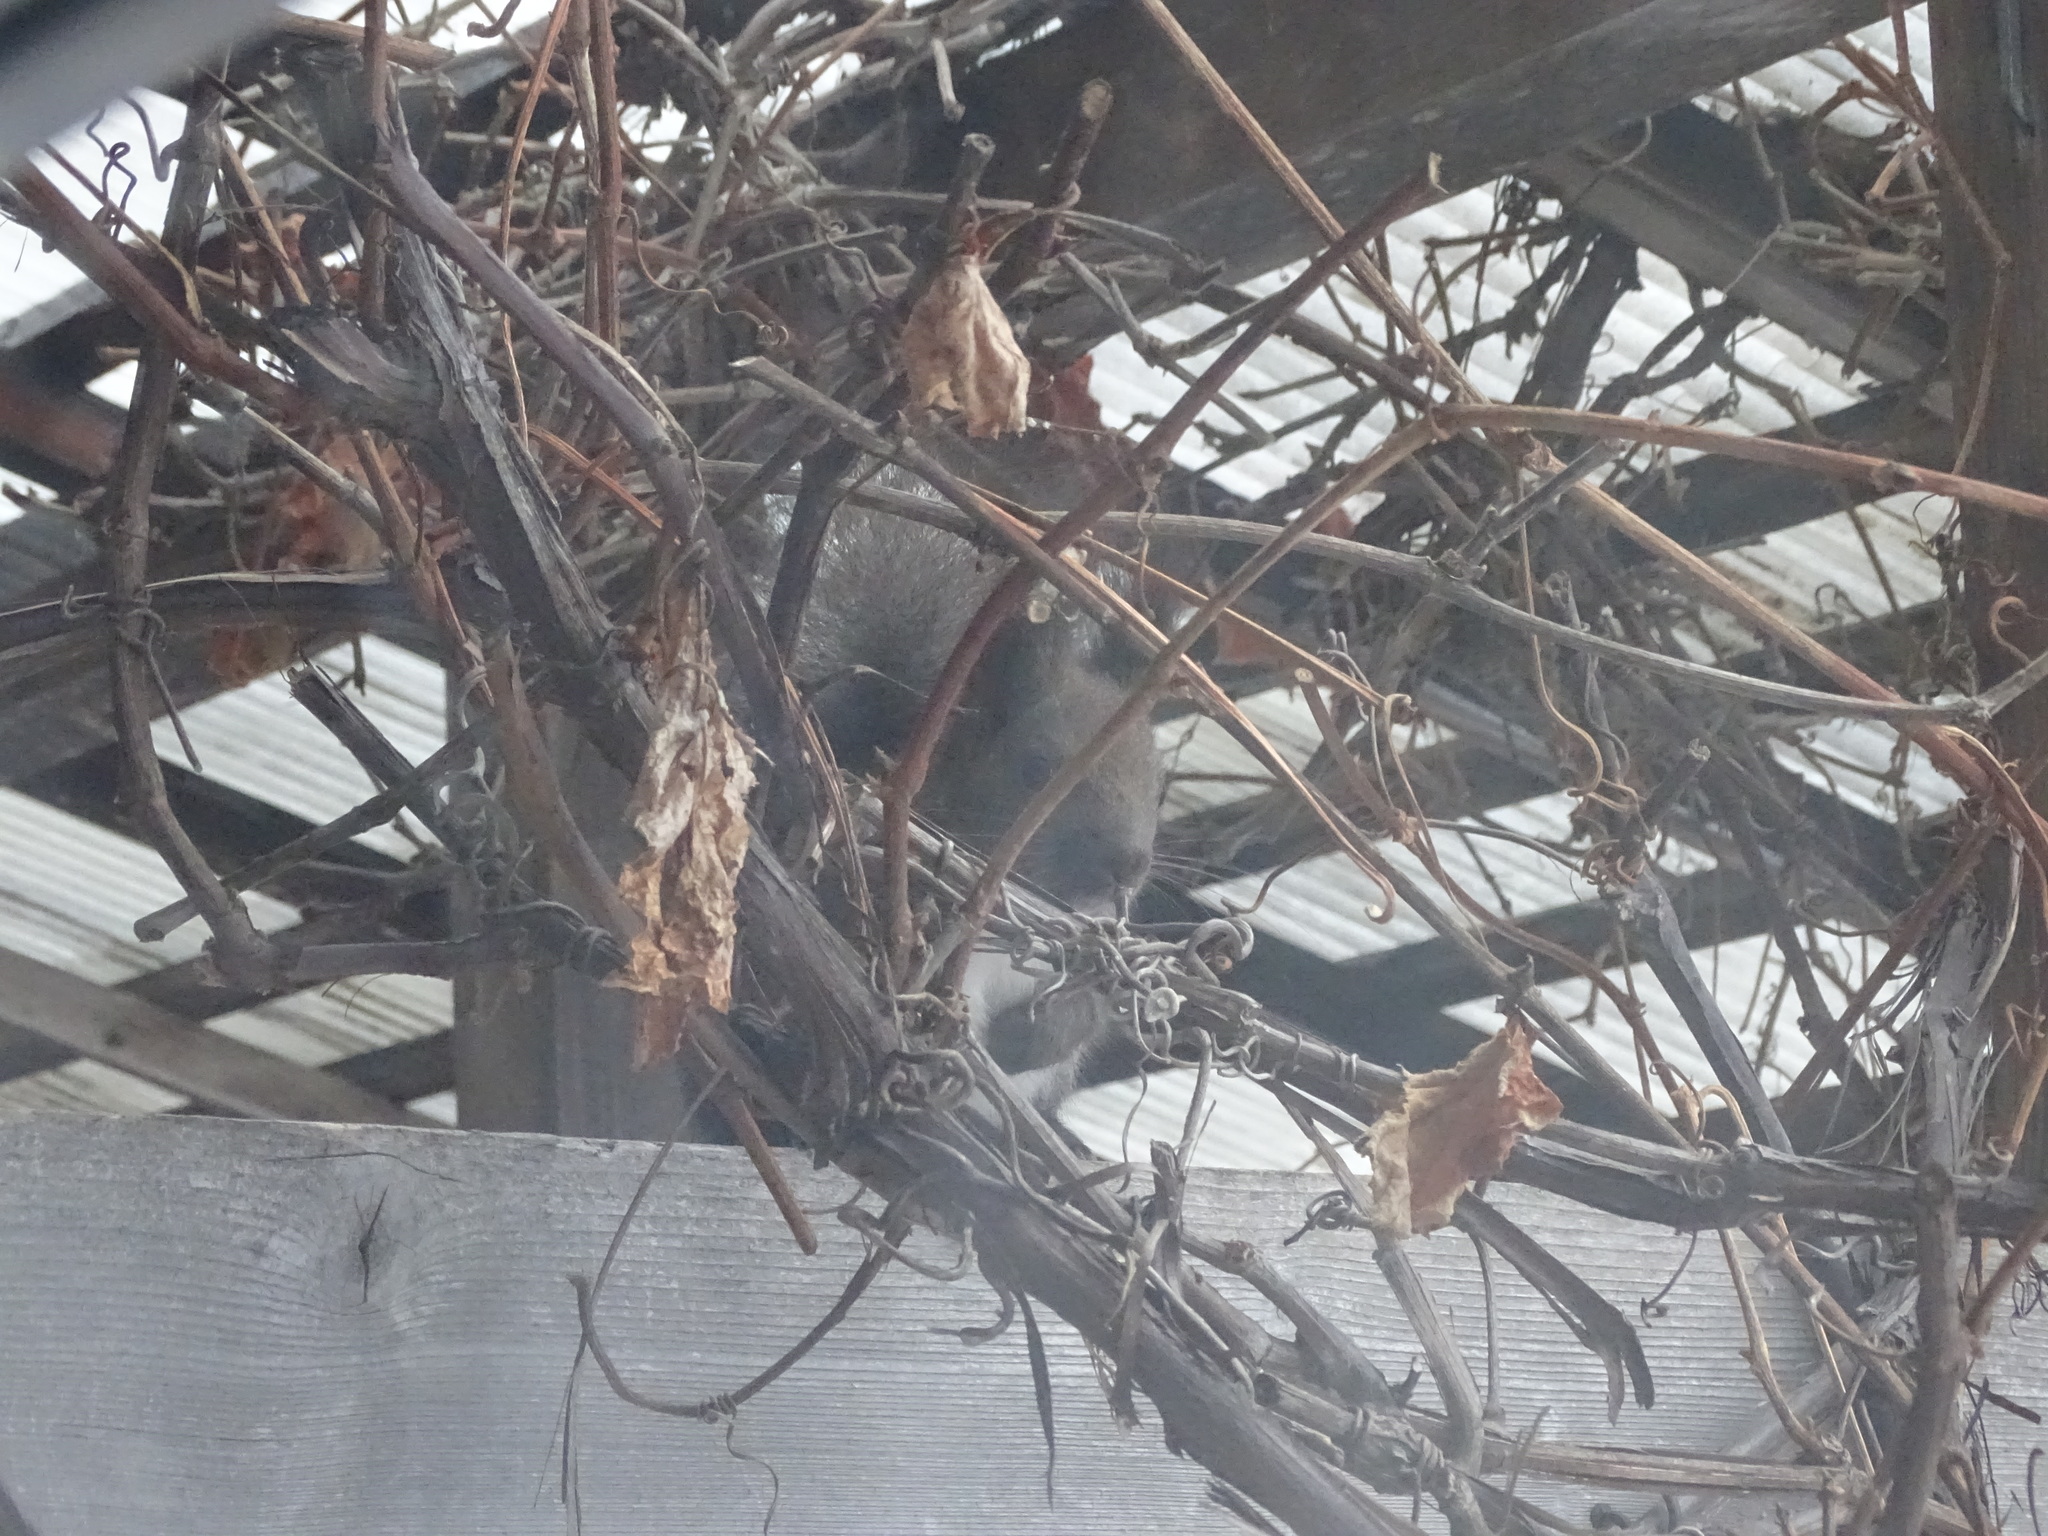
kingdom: Animalia
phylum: Chordata
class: Mammalia
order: Rodentia
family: Sciuridae
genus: Sciurus
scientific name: Sciurus vulgaris
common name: Eurasian red squirrel
